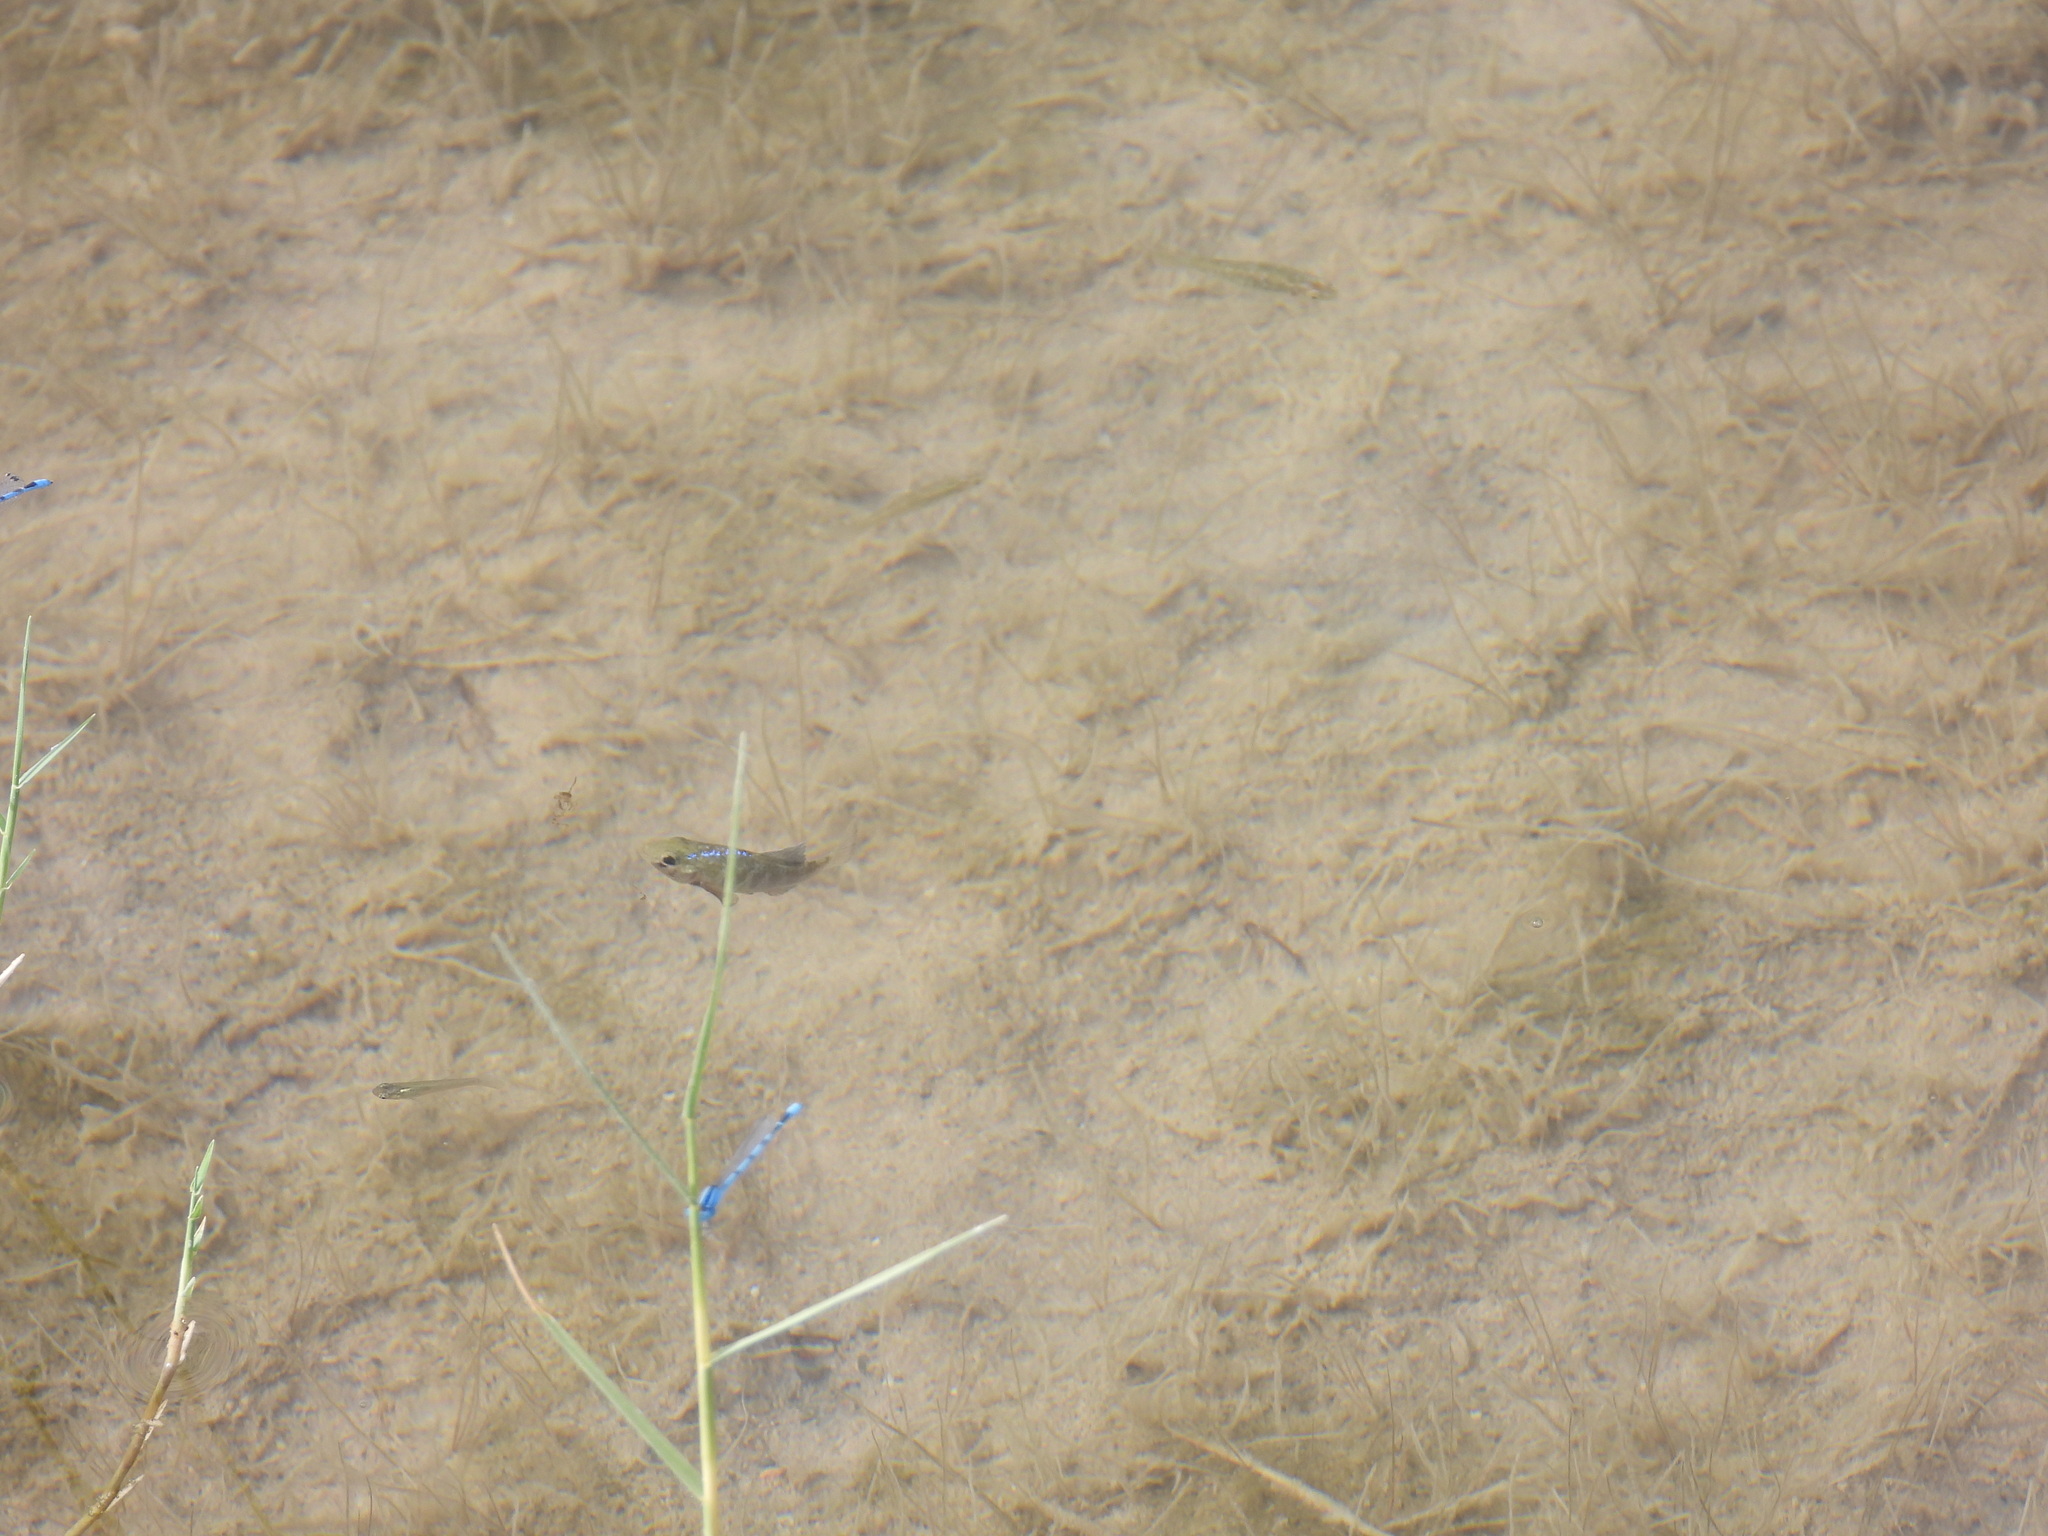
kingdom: Animalia
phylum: Chordata
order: Cyprinodontiformes
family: Cyprinodontidae
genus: Cyprinodon
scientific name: Cyprinodon pecosensis
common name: Pecos pupfish
